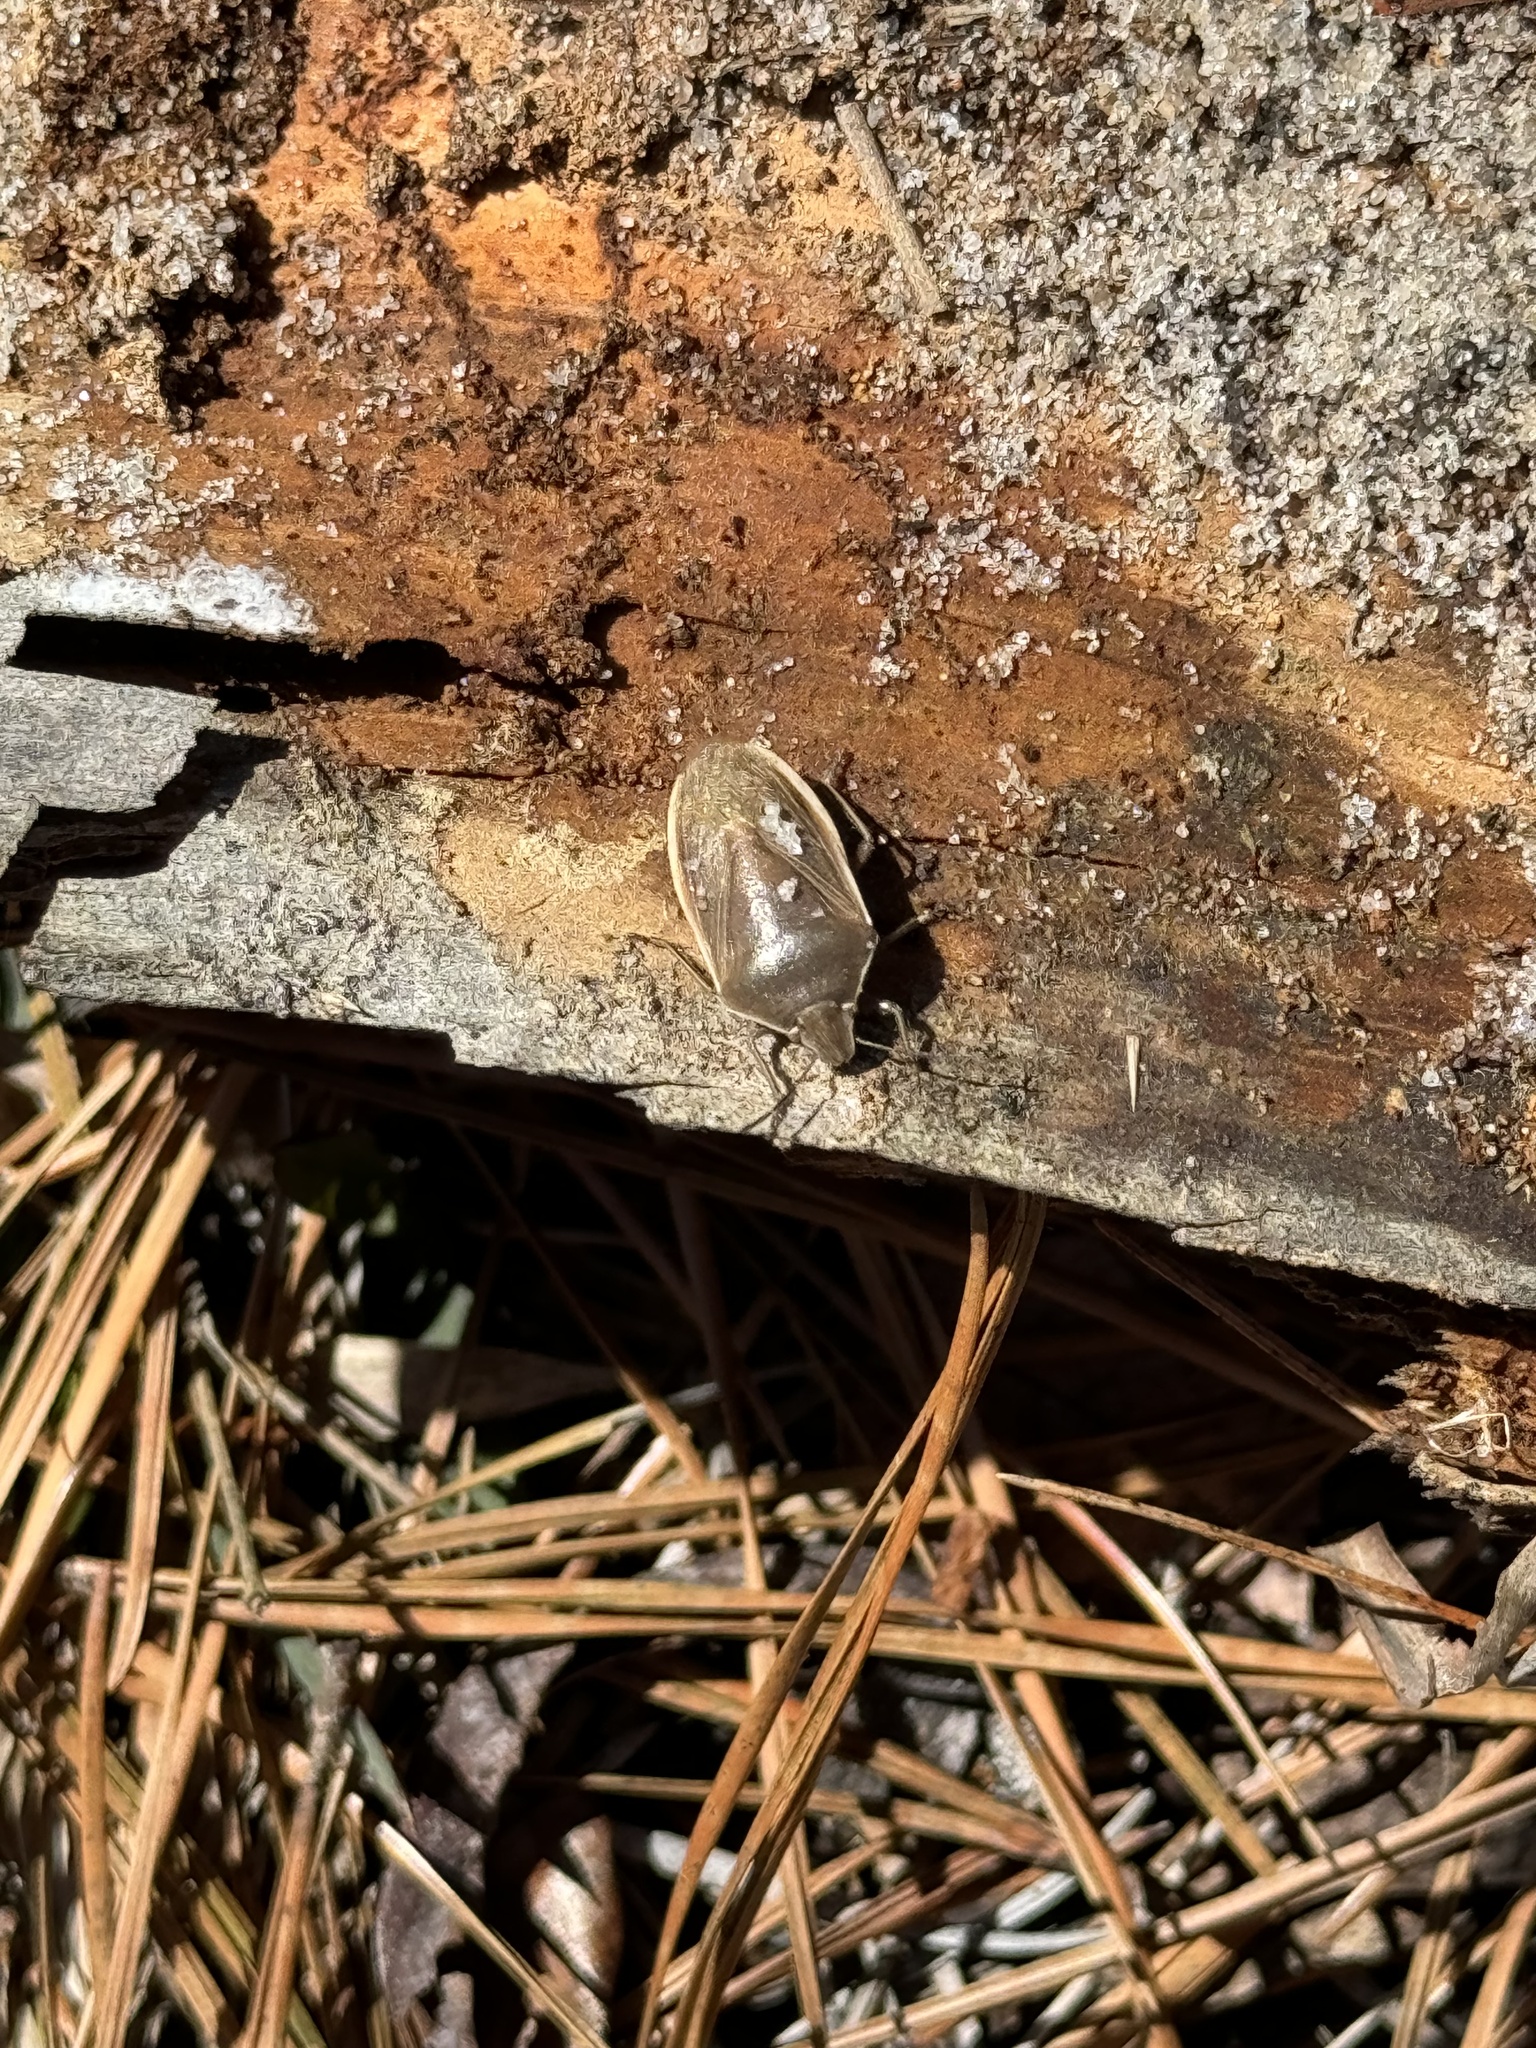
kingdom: Animalia
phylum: Arthropoda
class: Insecta
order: Hemiptera
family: Pentatomidae
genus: Chlorochroa
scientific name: Chlorochroa senilis
